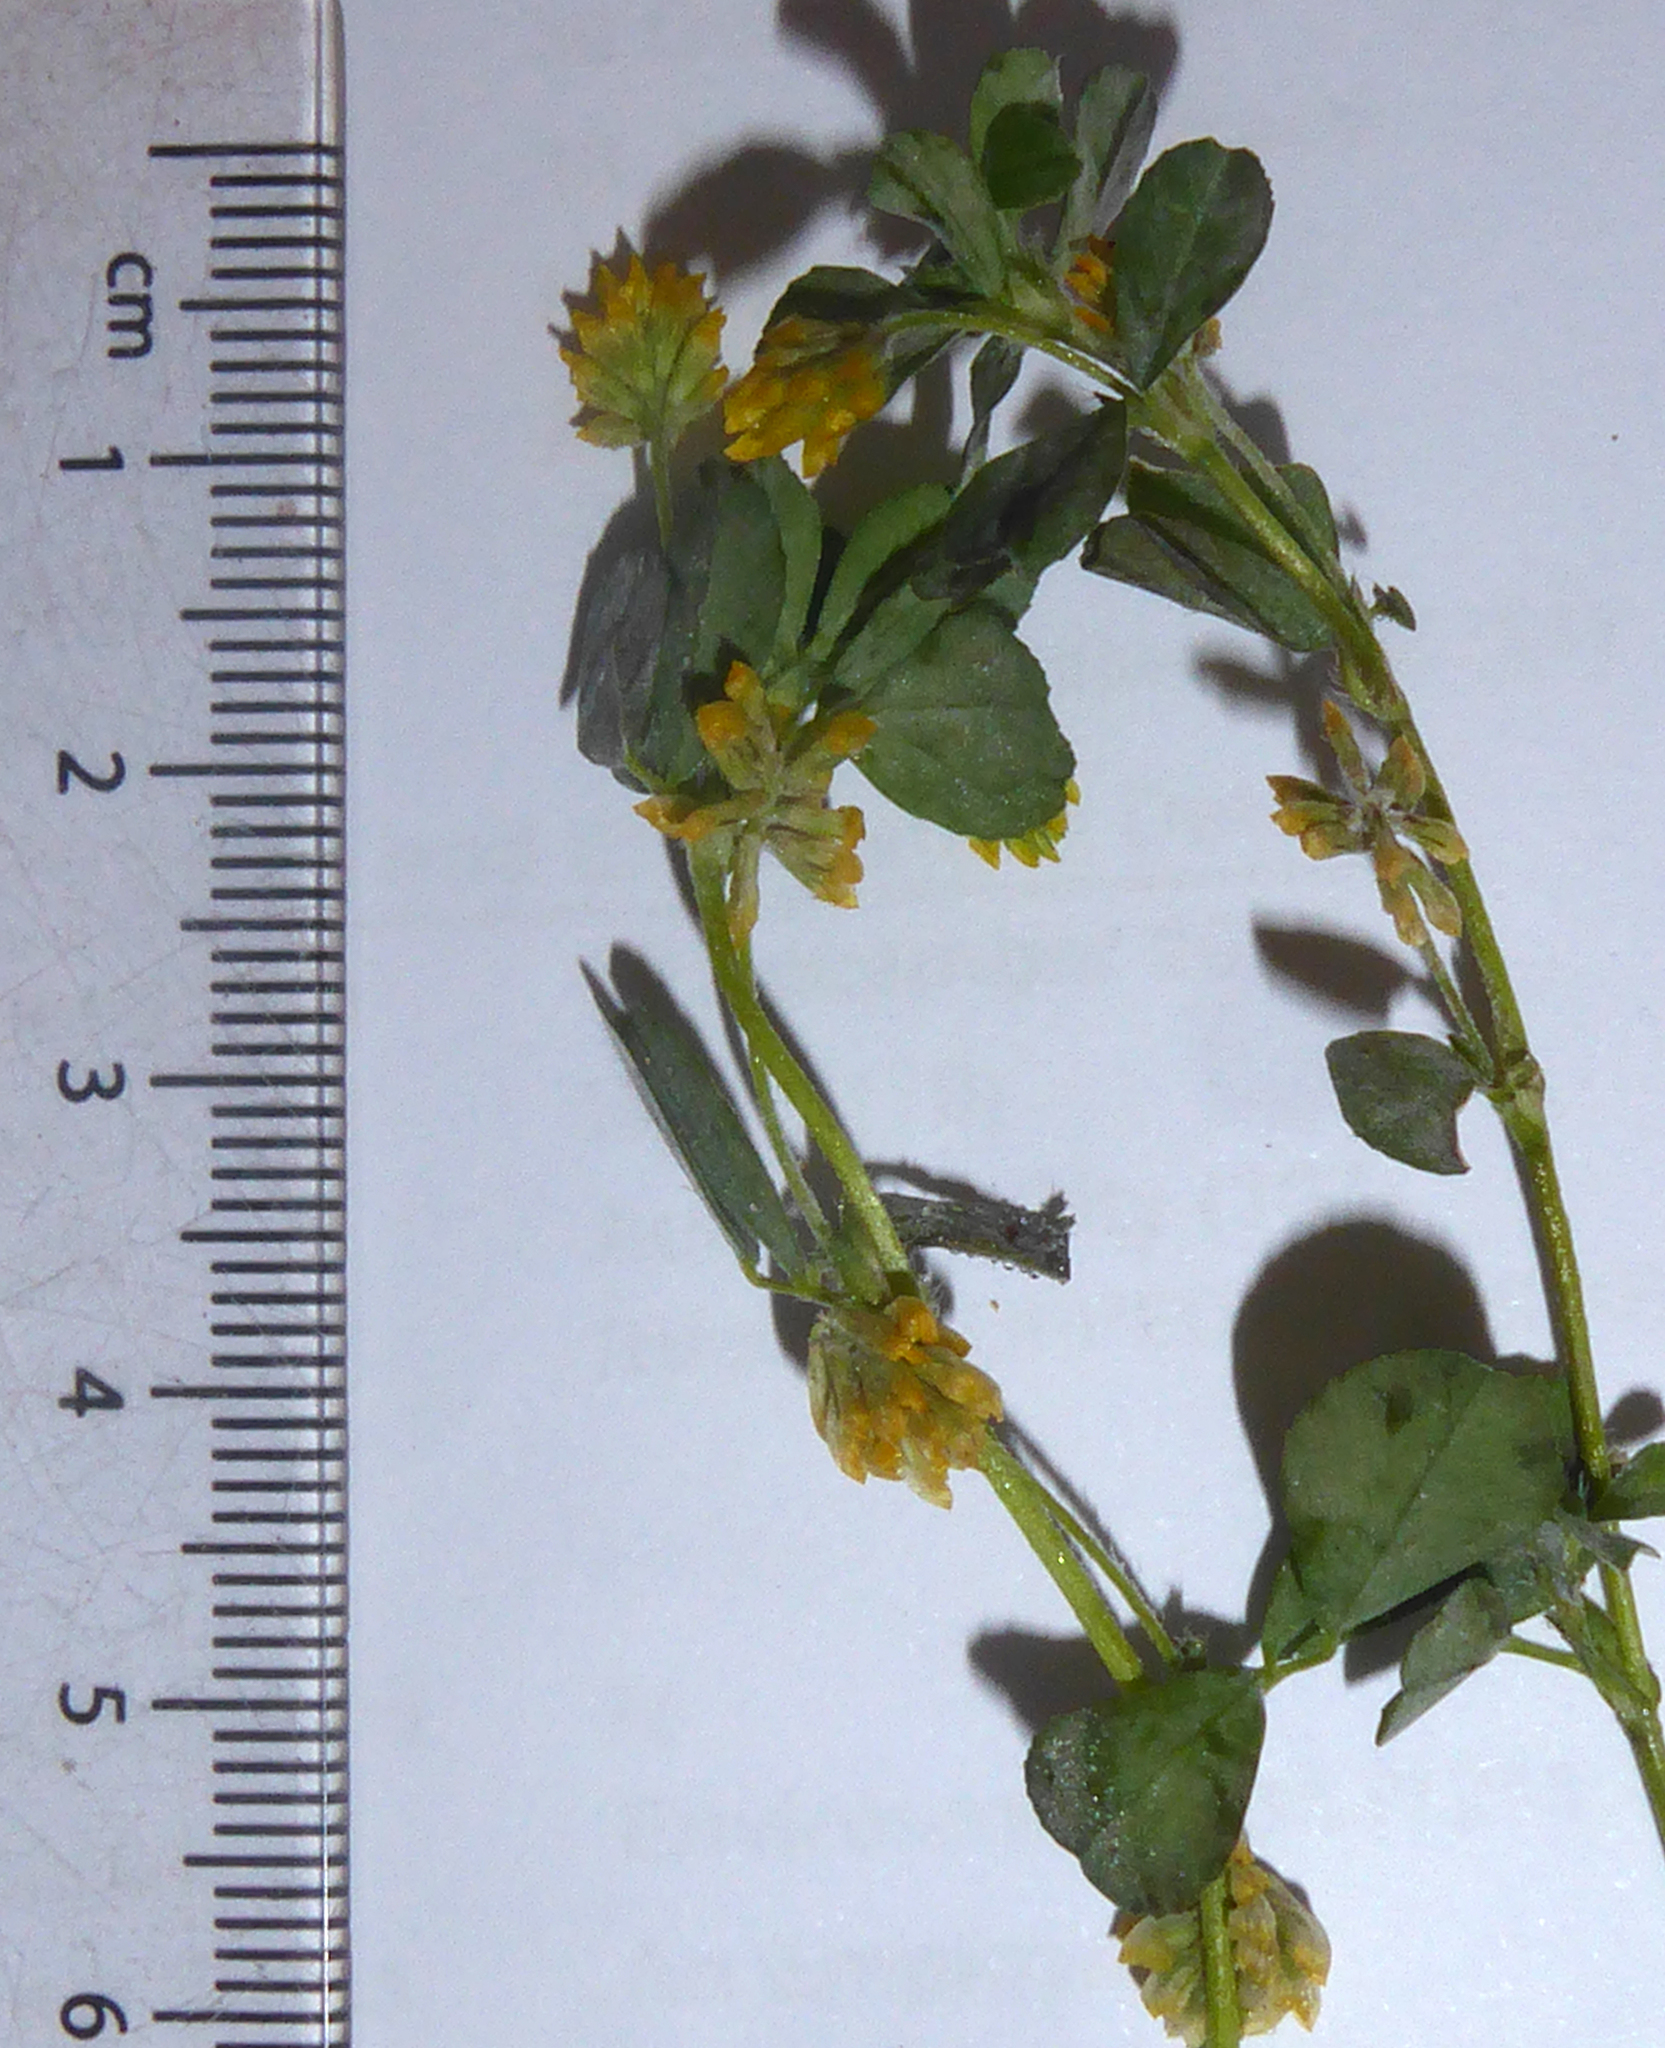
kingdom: Fungi
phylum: Ascomycota
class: Leotiomycetes
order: Helotiales
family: Erysiphaceae
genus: Erysiphe
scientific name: Erysiphe trifoliorum
